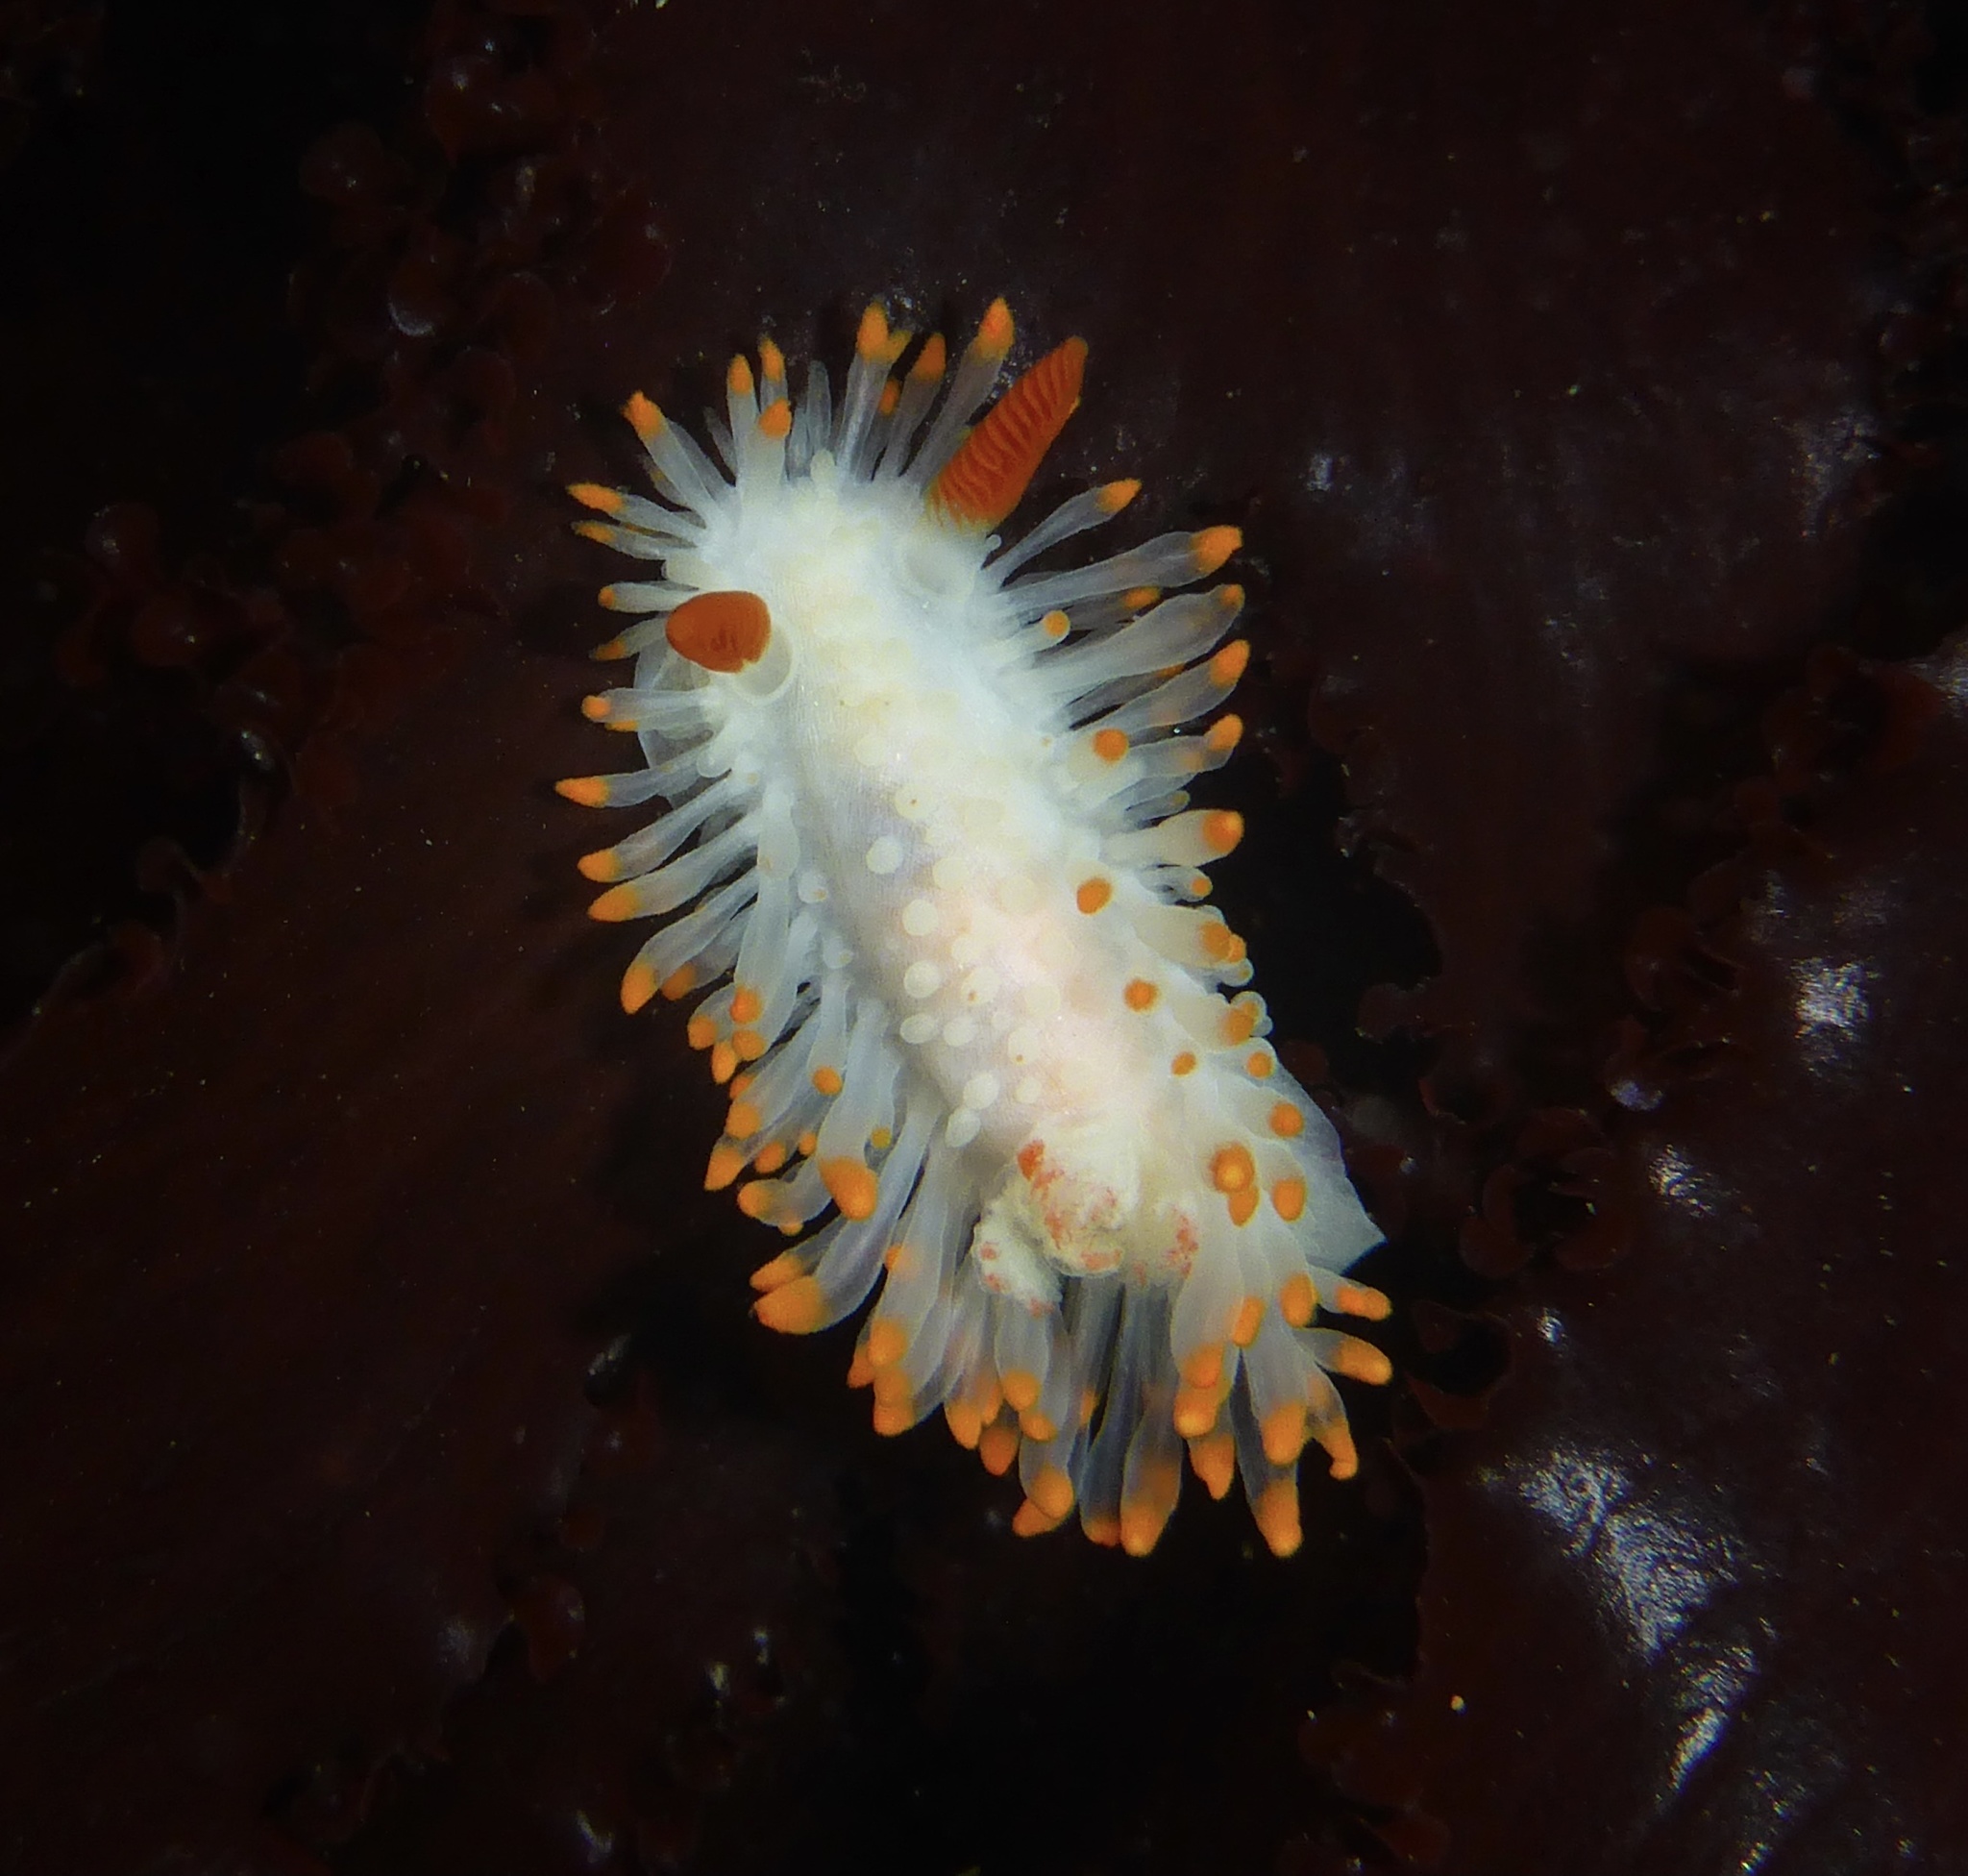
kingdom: Animalia
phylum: Mollusca
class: Gastropoda
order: Nudibranchia
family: Polyceridae
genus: Limacia
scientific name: Limacia cockerelli
